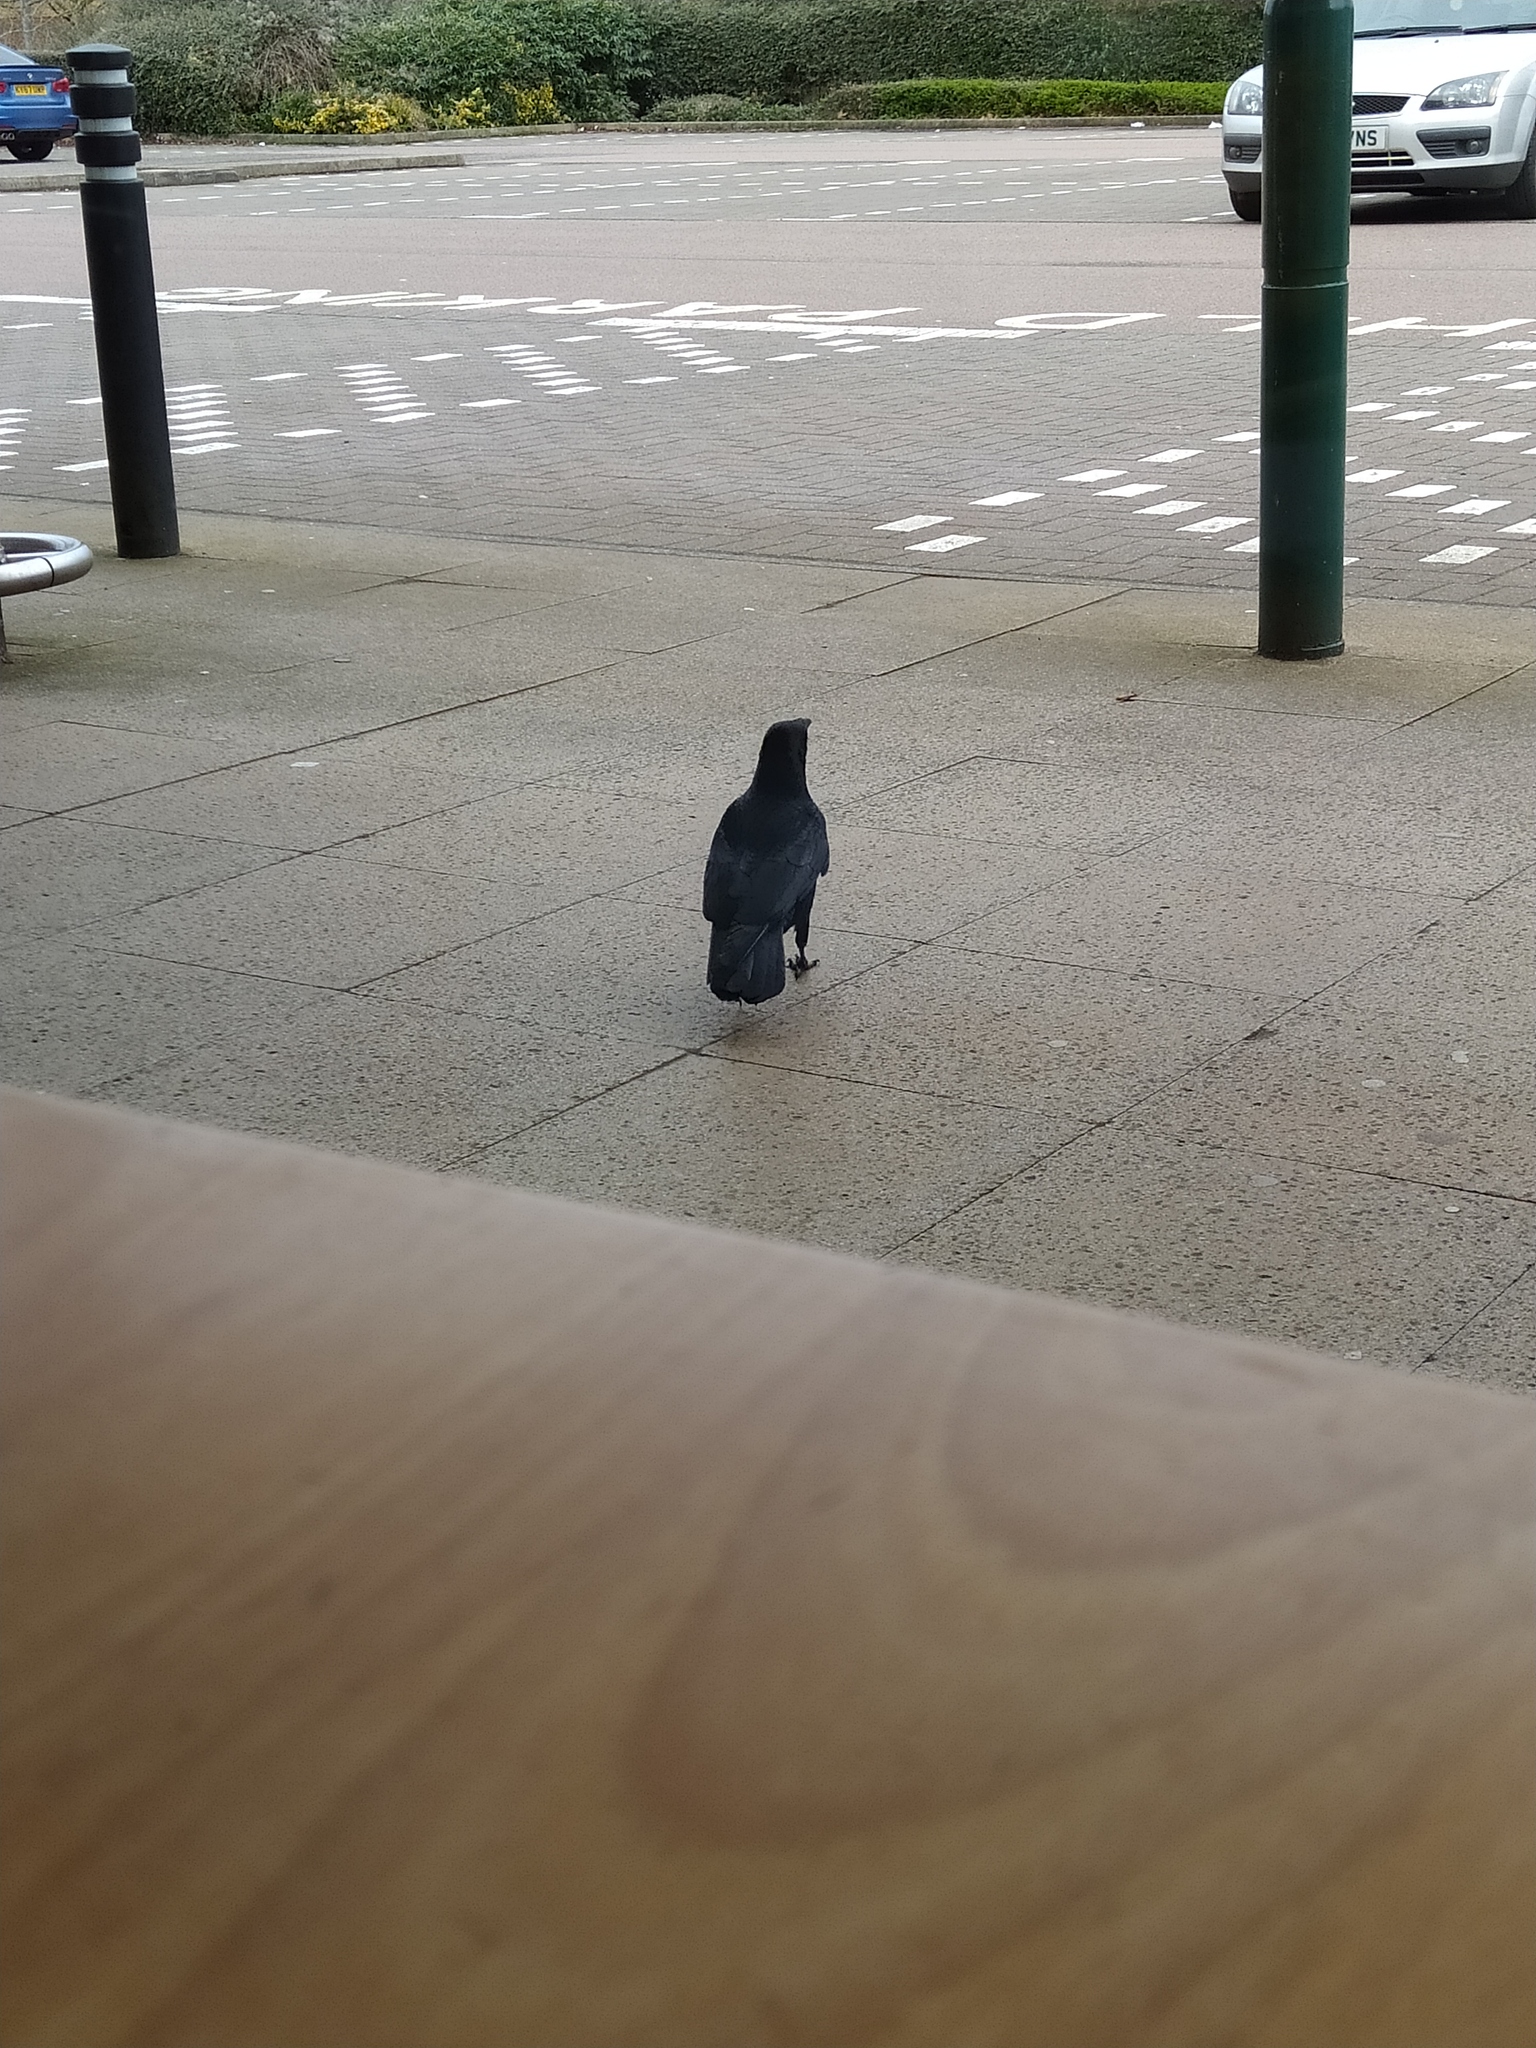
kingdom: Animalia
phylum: Chordata
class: Aves
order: Passeriformes
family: Corvidae
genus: Corvus
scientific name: Corvus corone
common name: Carrion crow
